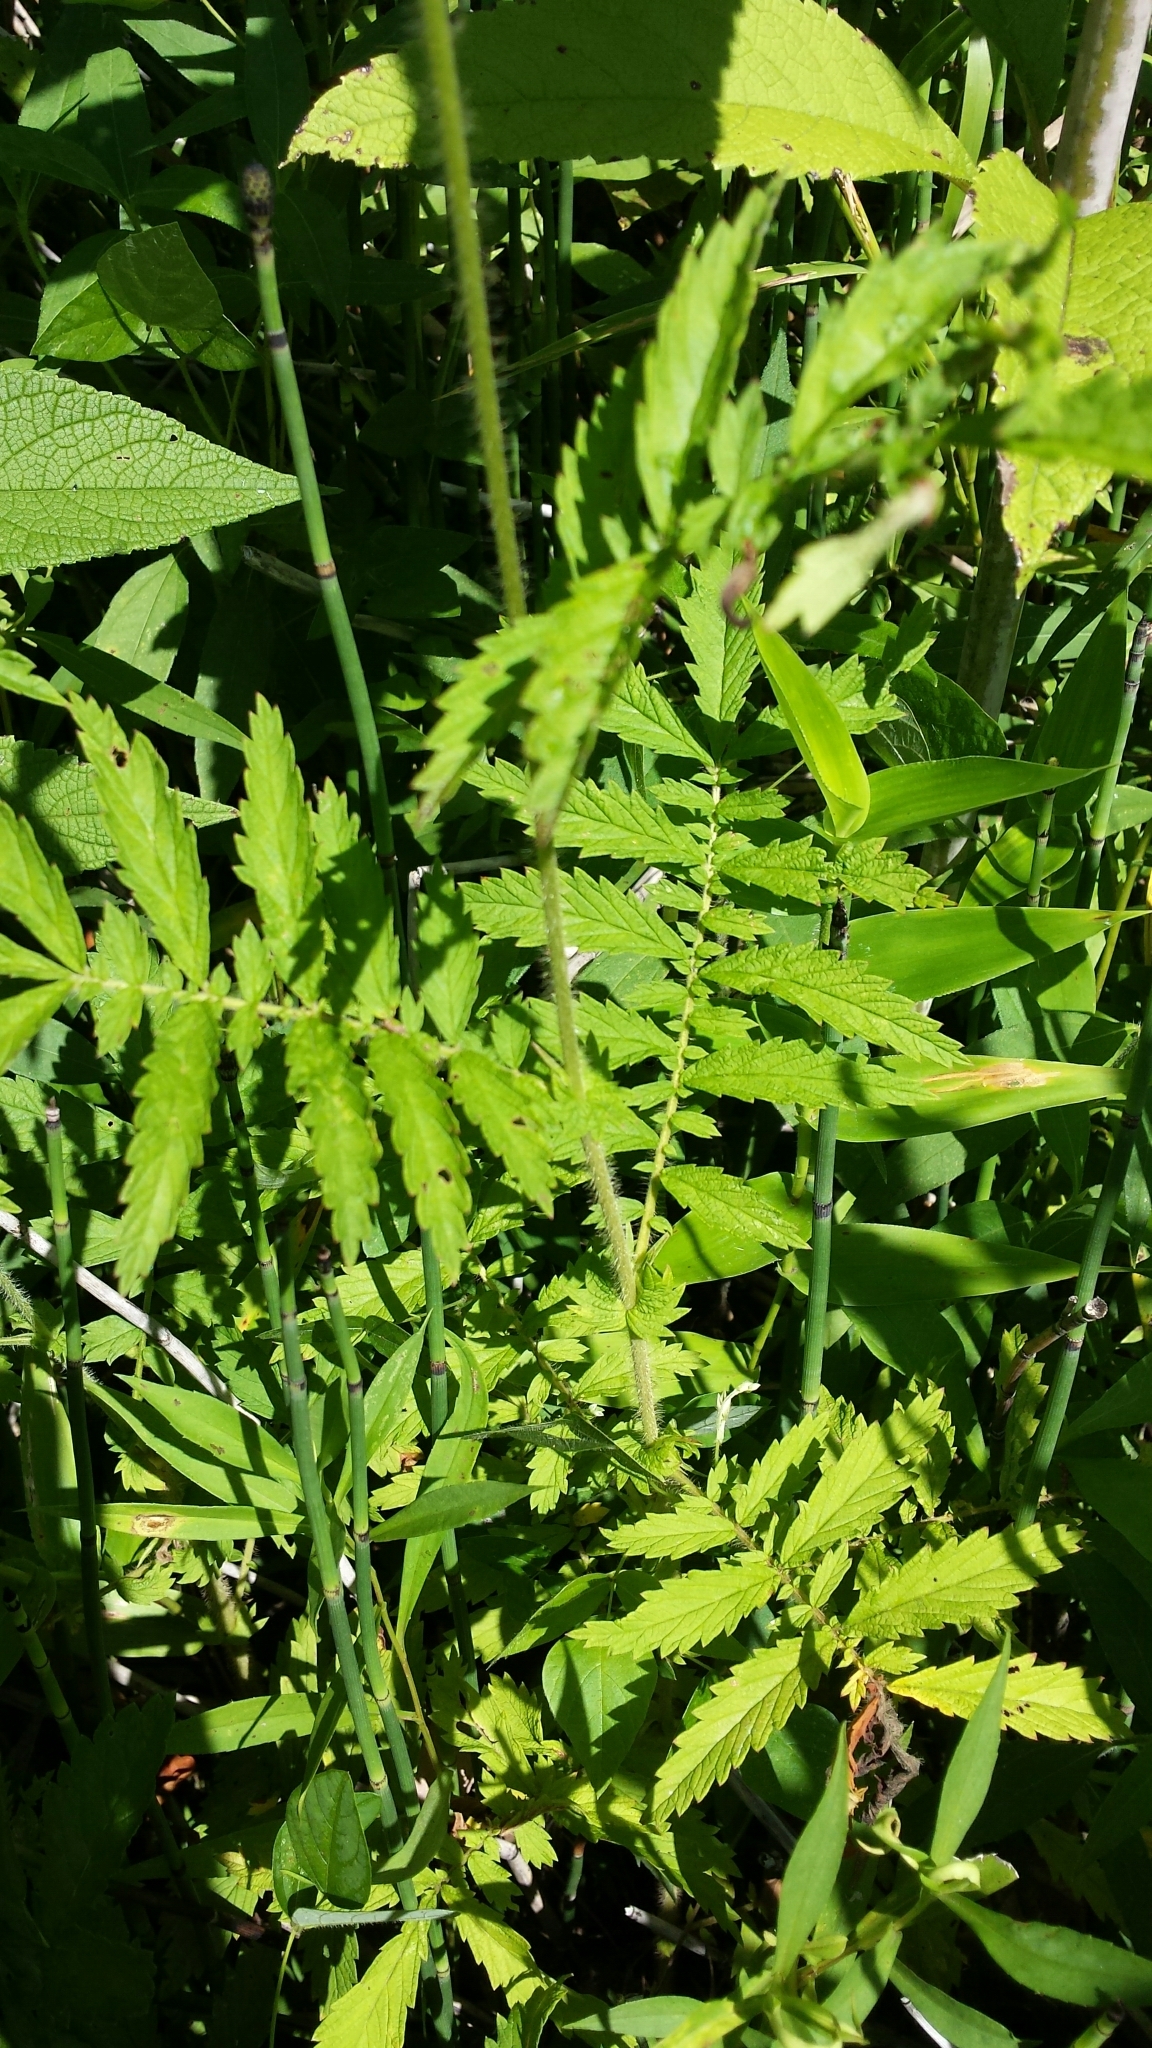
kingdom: Plantae
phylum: Tracheophyta
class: Magnoliopsida
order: Rosales
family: Rosaceae
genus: Agrimonia
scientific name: Agrimonia parviflora
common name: Harvest-lice
